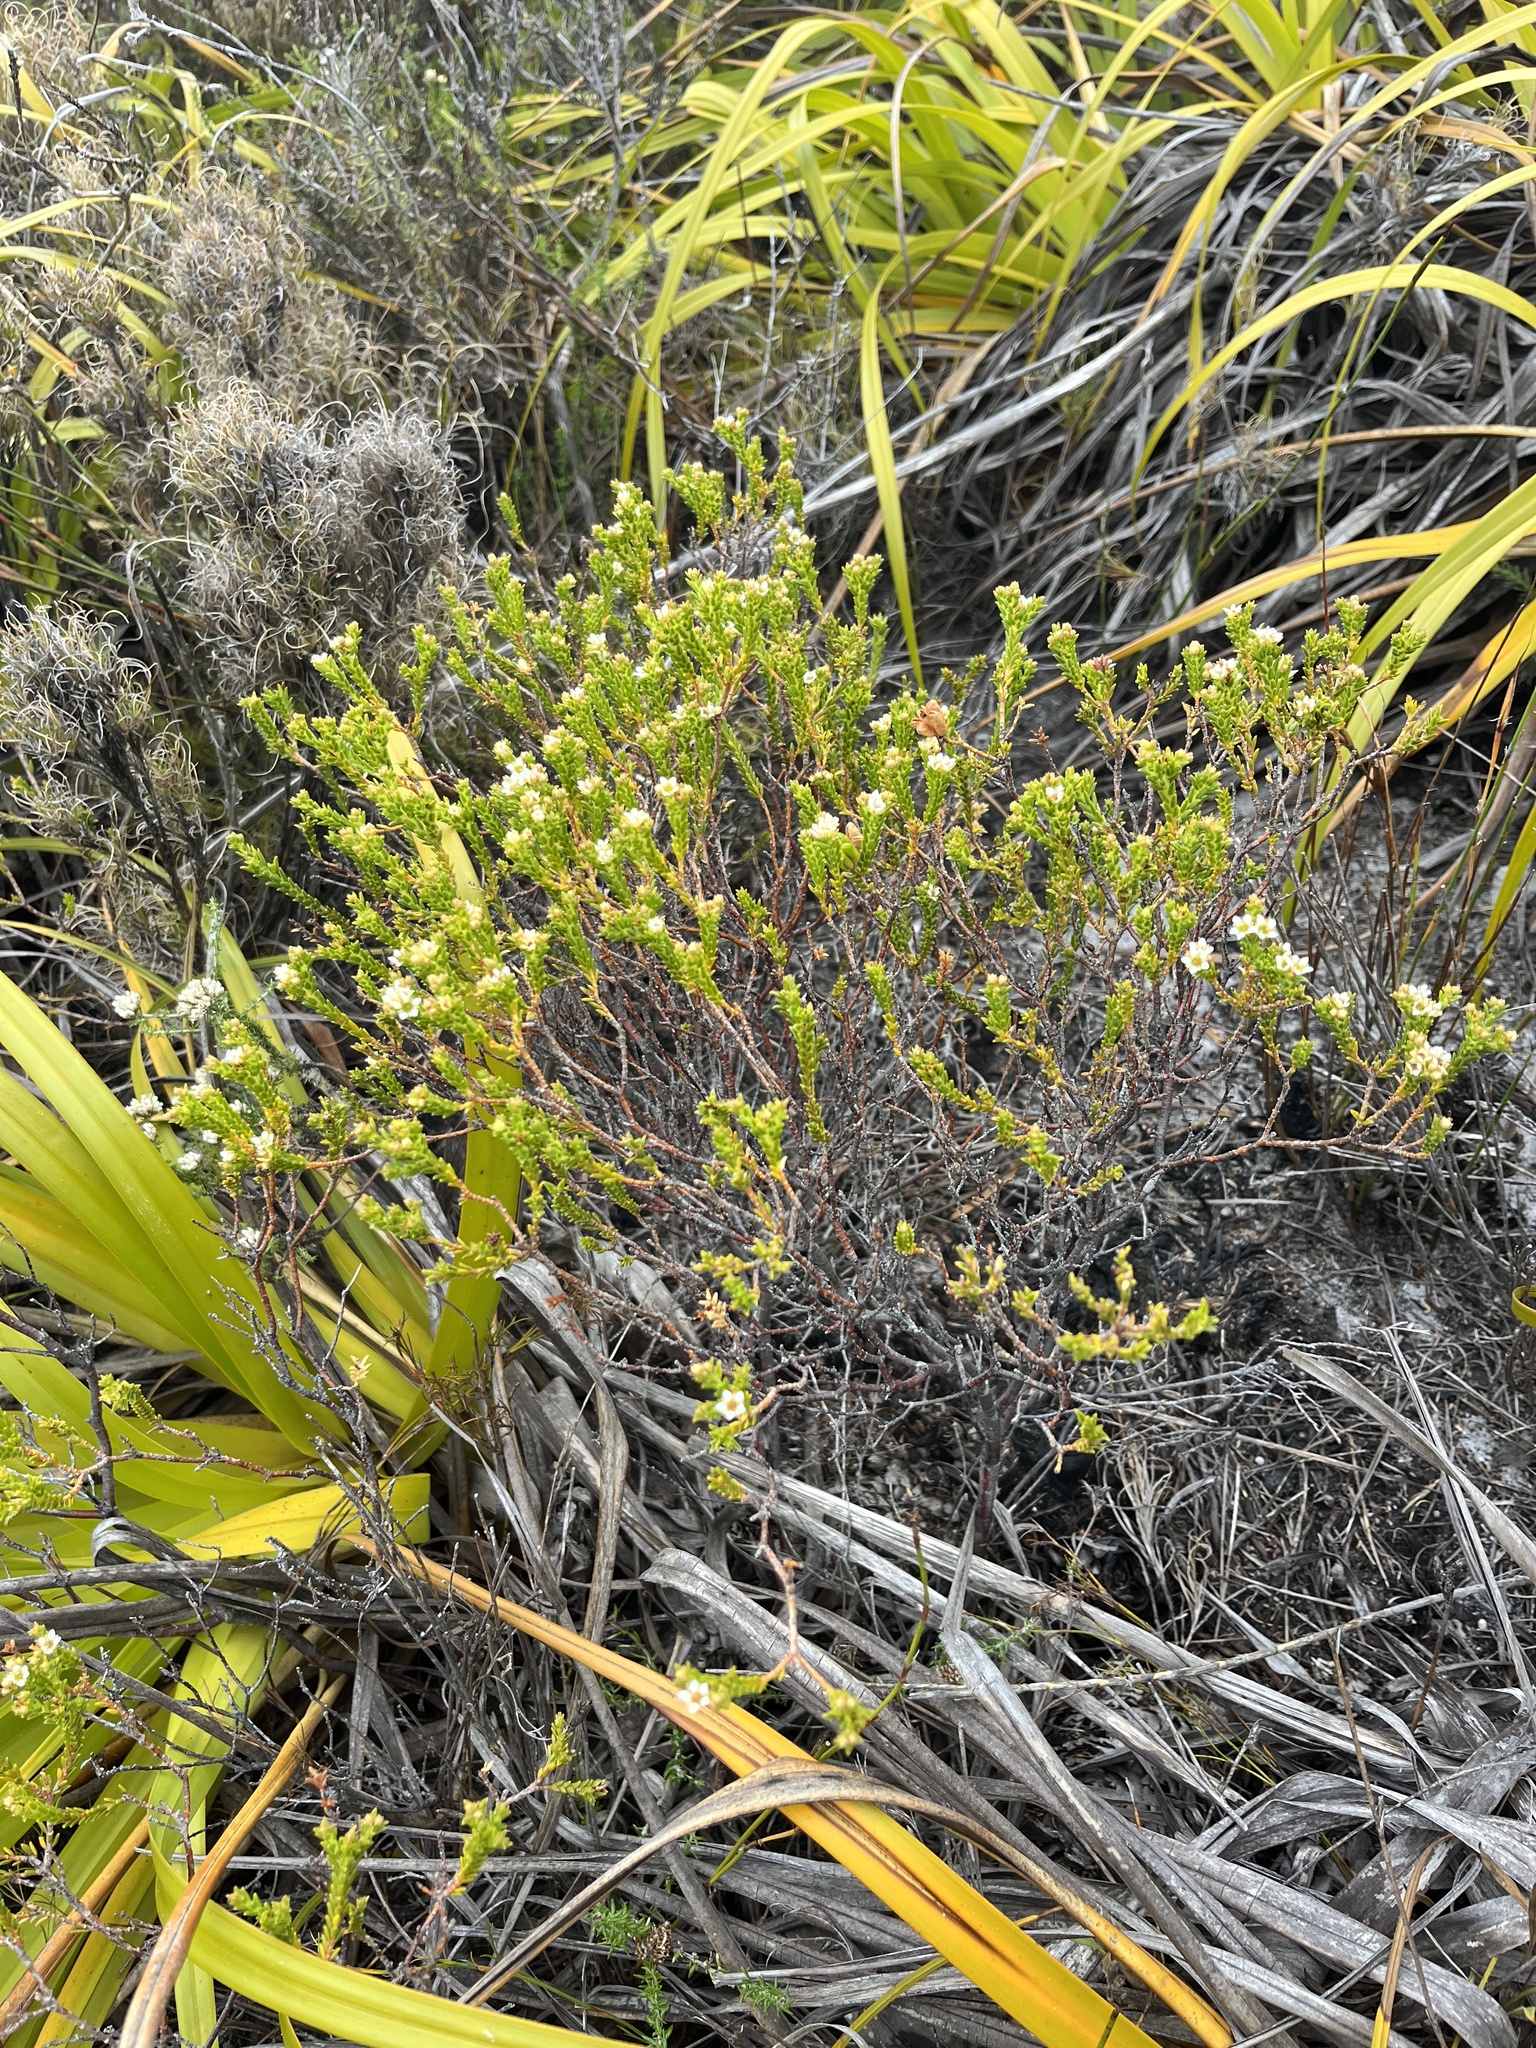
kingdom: Plantae
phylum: Tracheophyta
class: Magnoliopsida
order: Sapindales
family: Rutaceae
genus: Diosma
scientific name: Diosma oppositifolia
